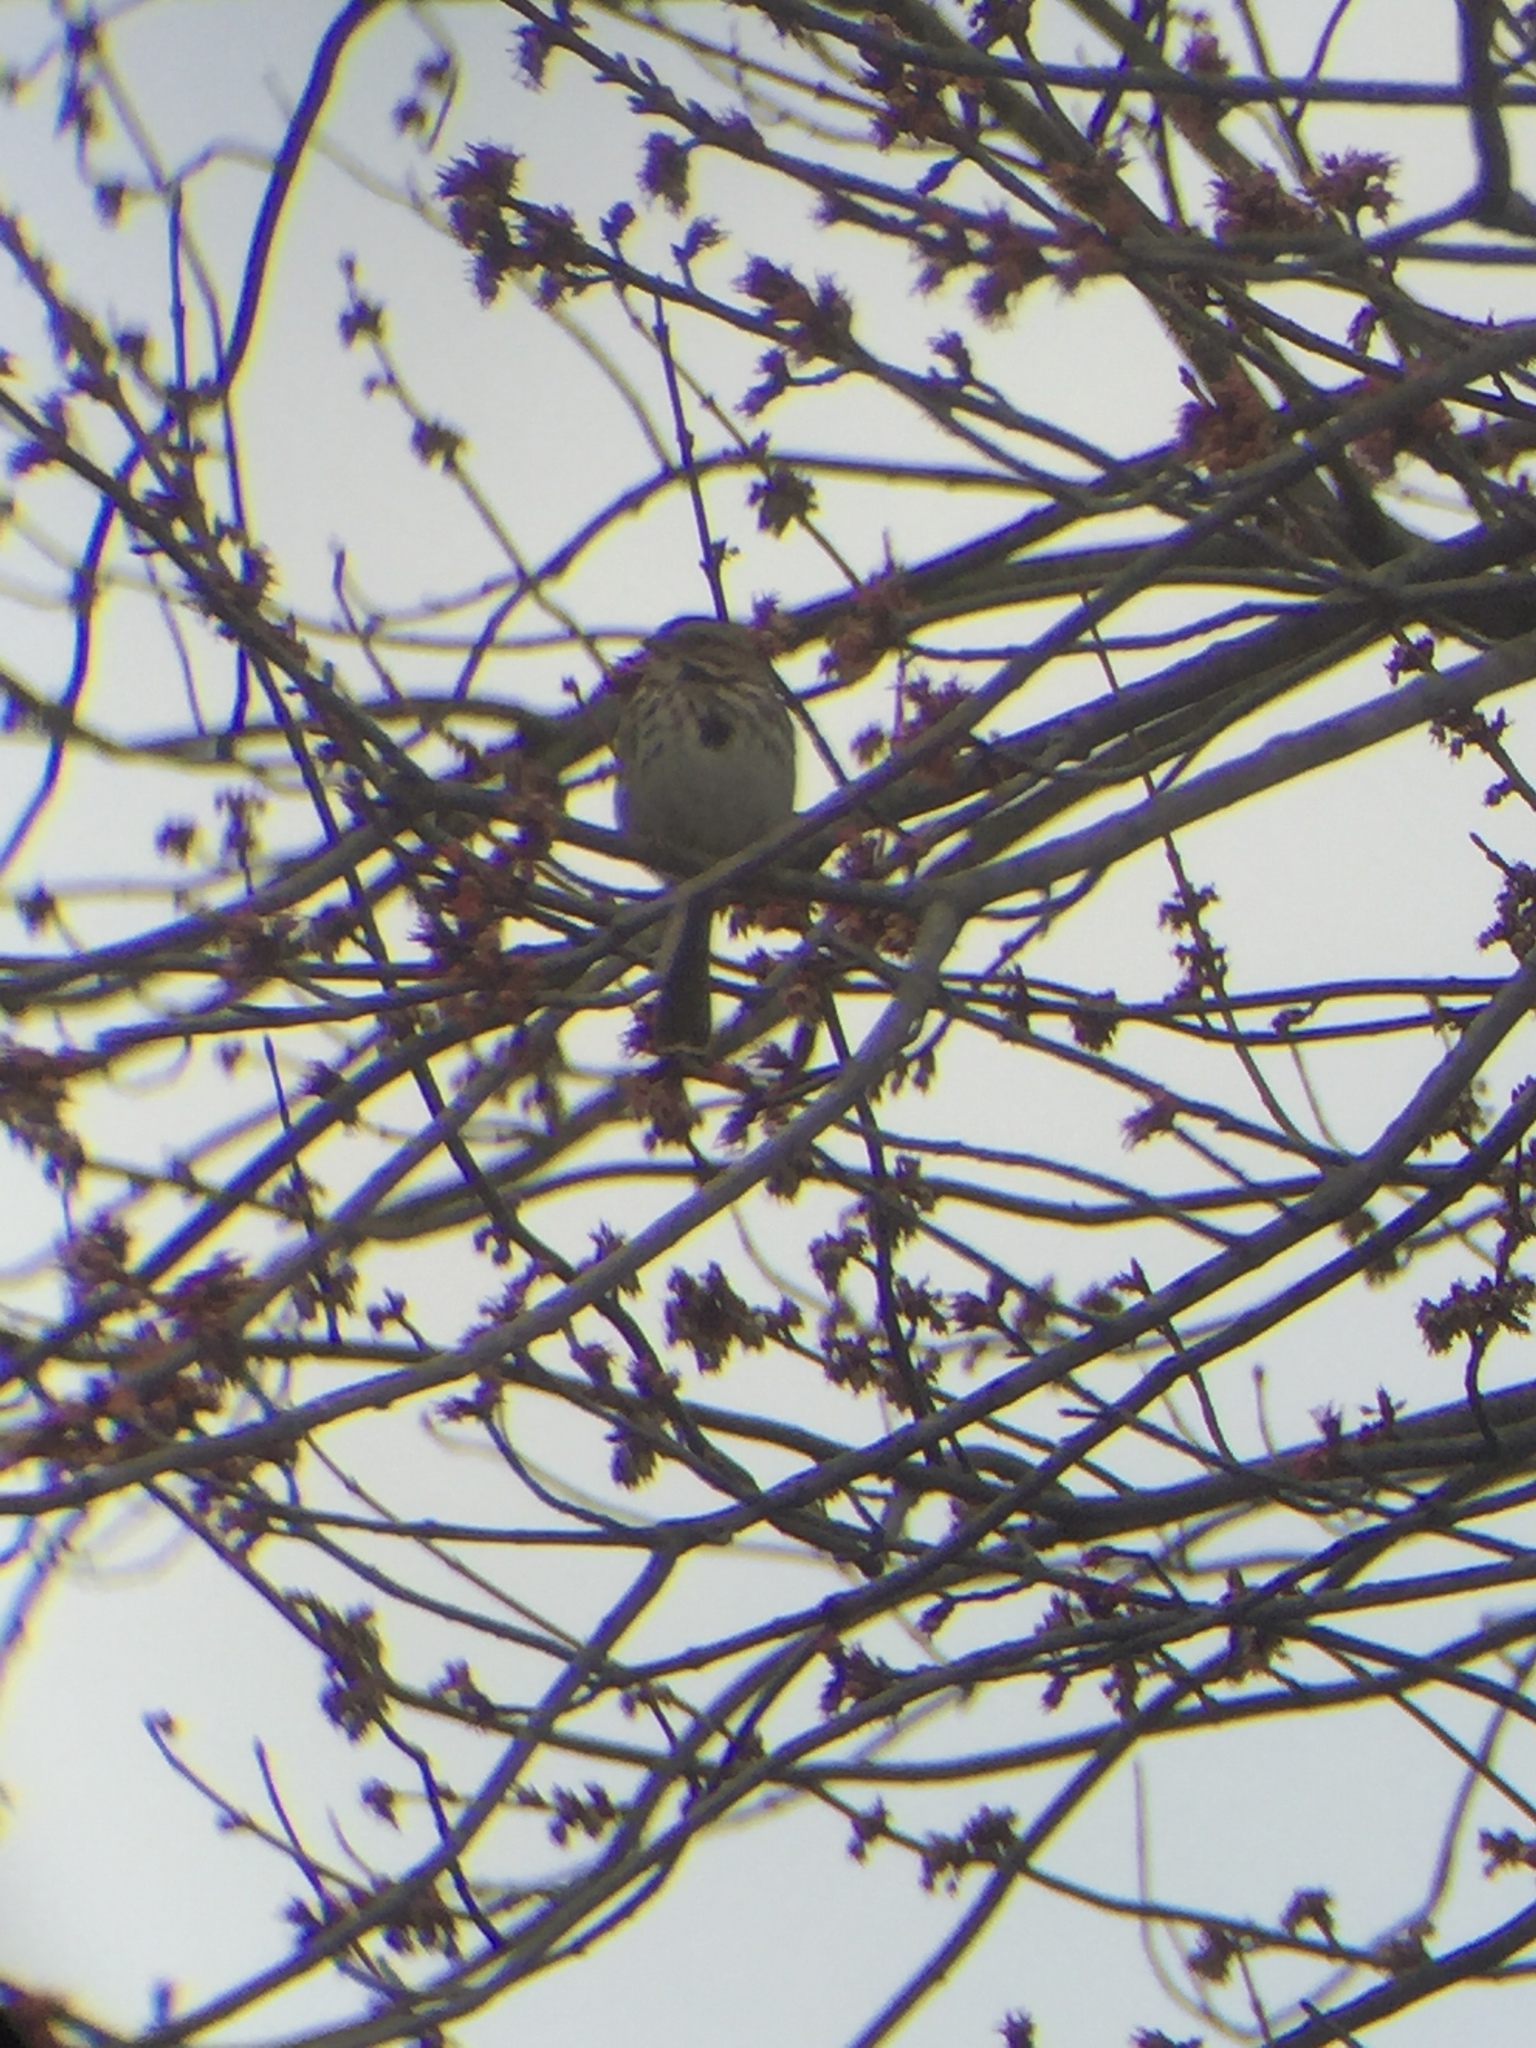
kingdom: Animalia
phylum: Chordata
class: Aves
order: Passeriformes
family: Passerellidae
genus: Melospiza
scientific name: Melospiza melodia
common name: Song sparrow
